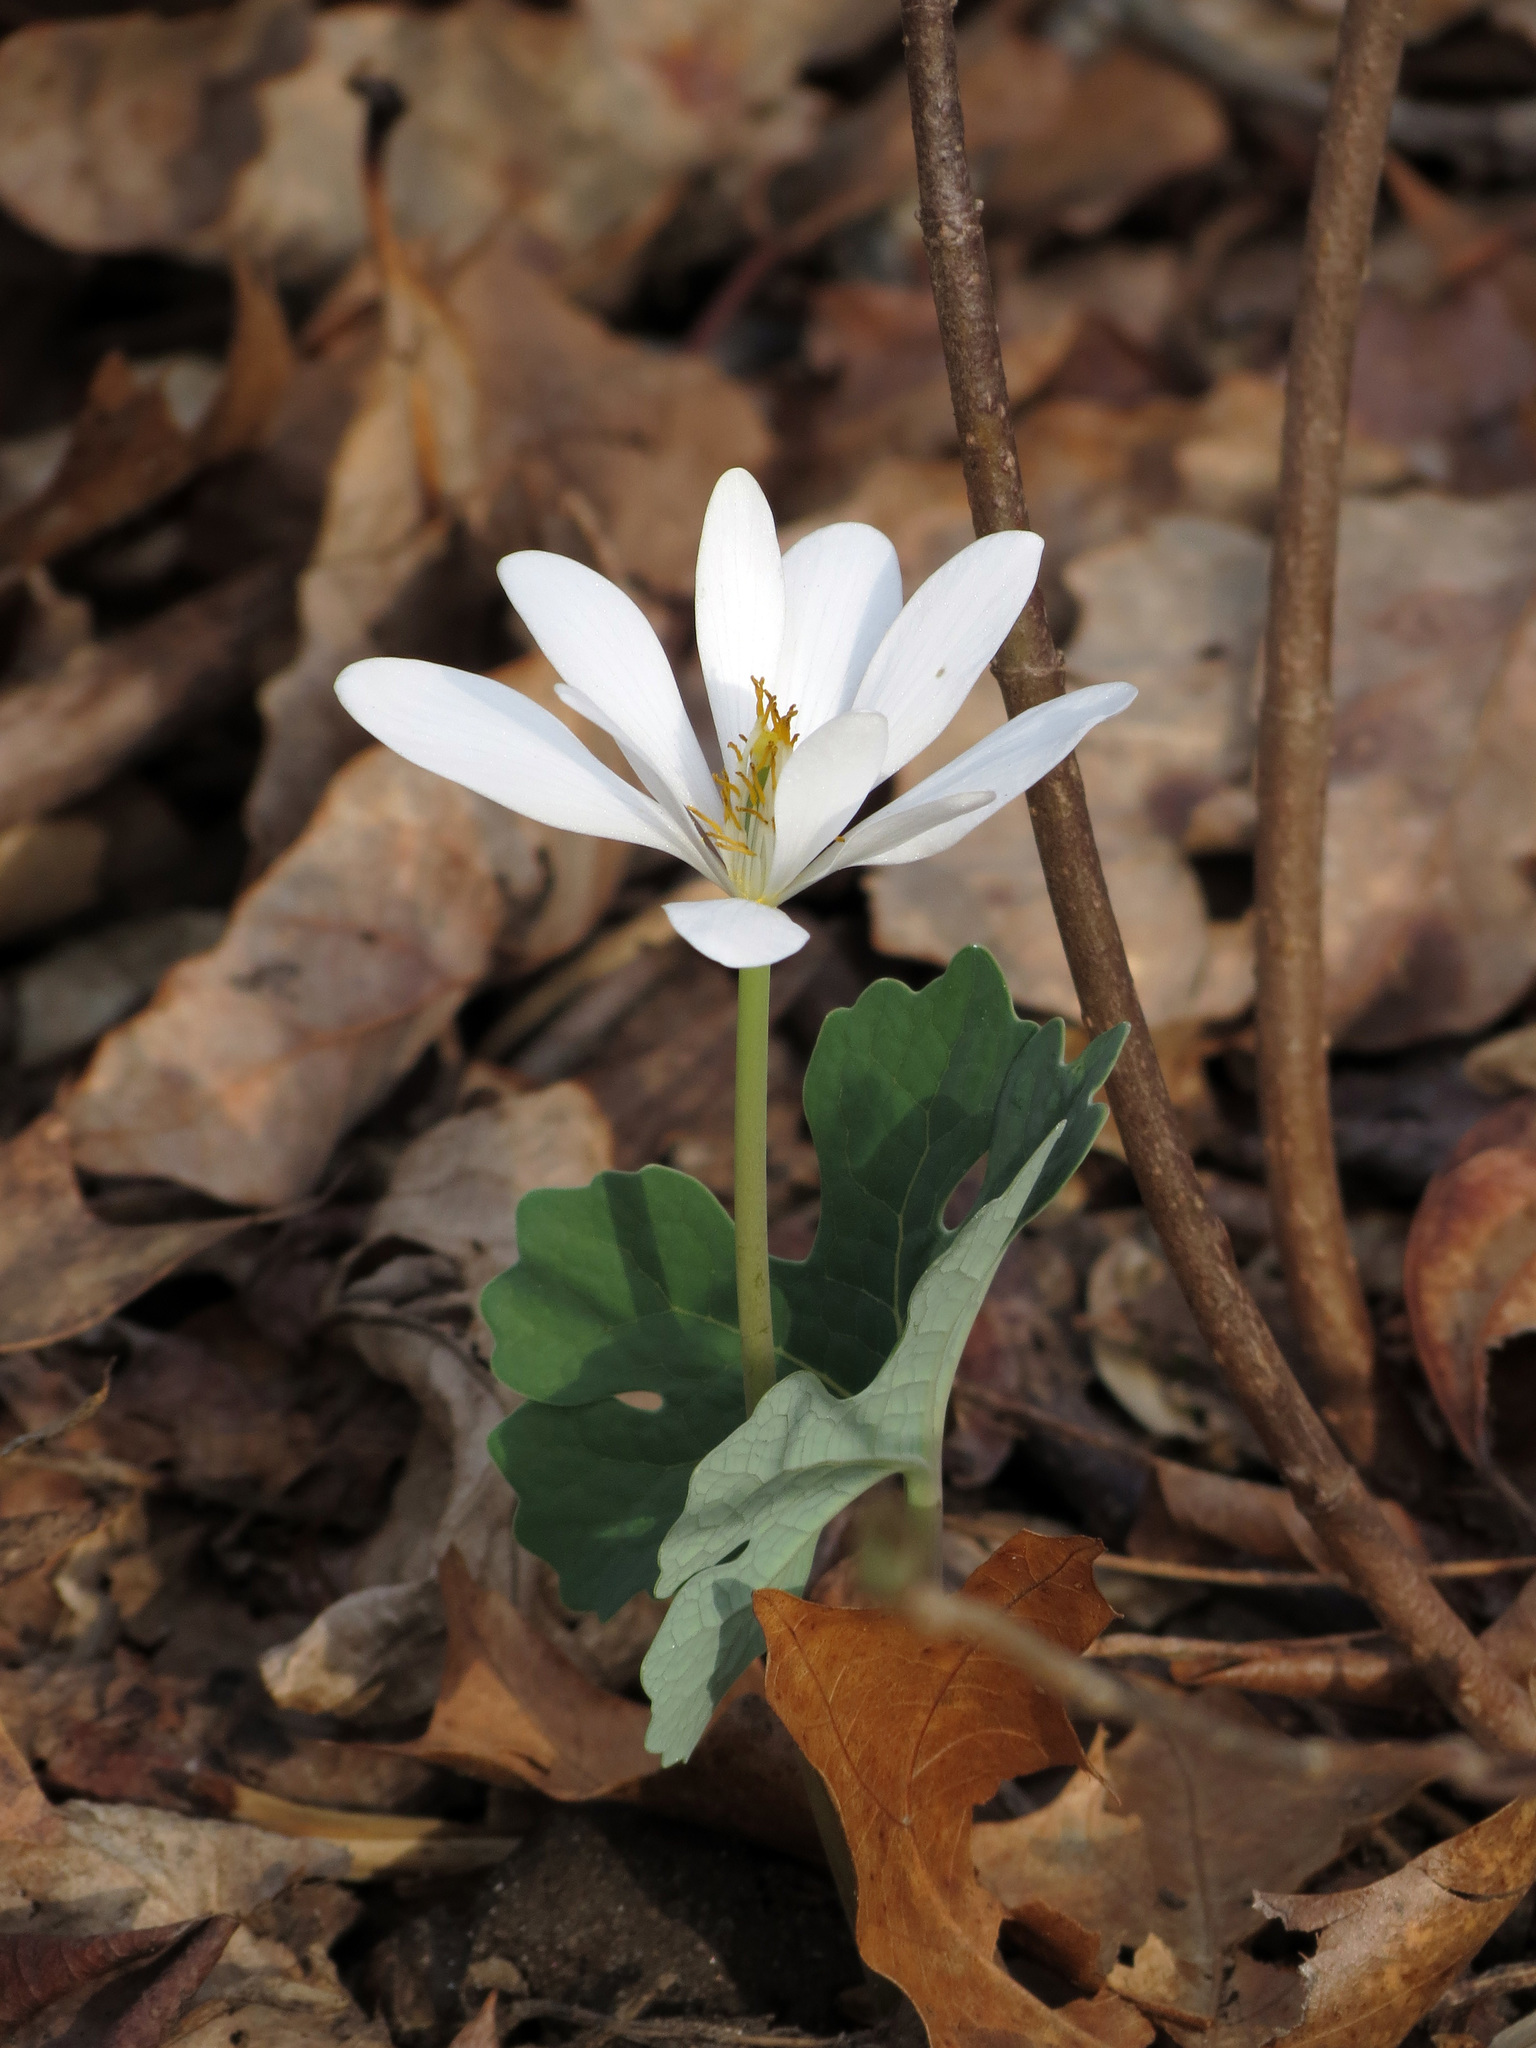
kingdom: Plantae
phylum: Tracheophyta
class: Magnoliopsida
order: Ranunculales
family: Papaveraceae
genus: Sanguinaria
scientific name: Sanguinaria canadensis
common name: Bloodroot
